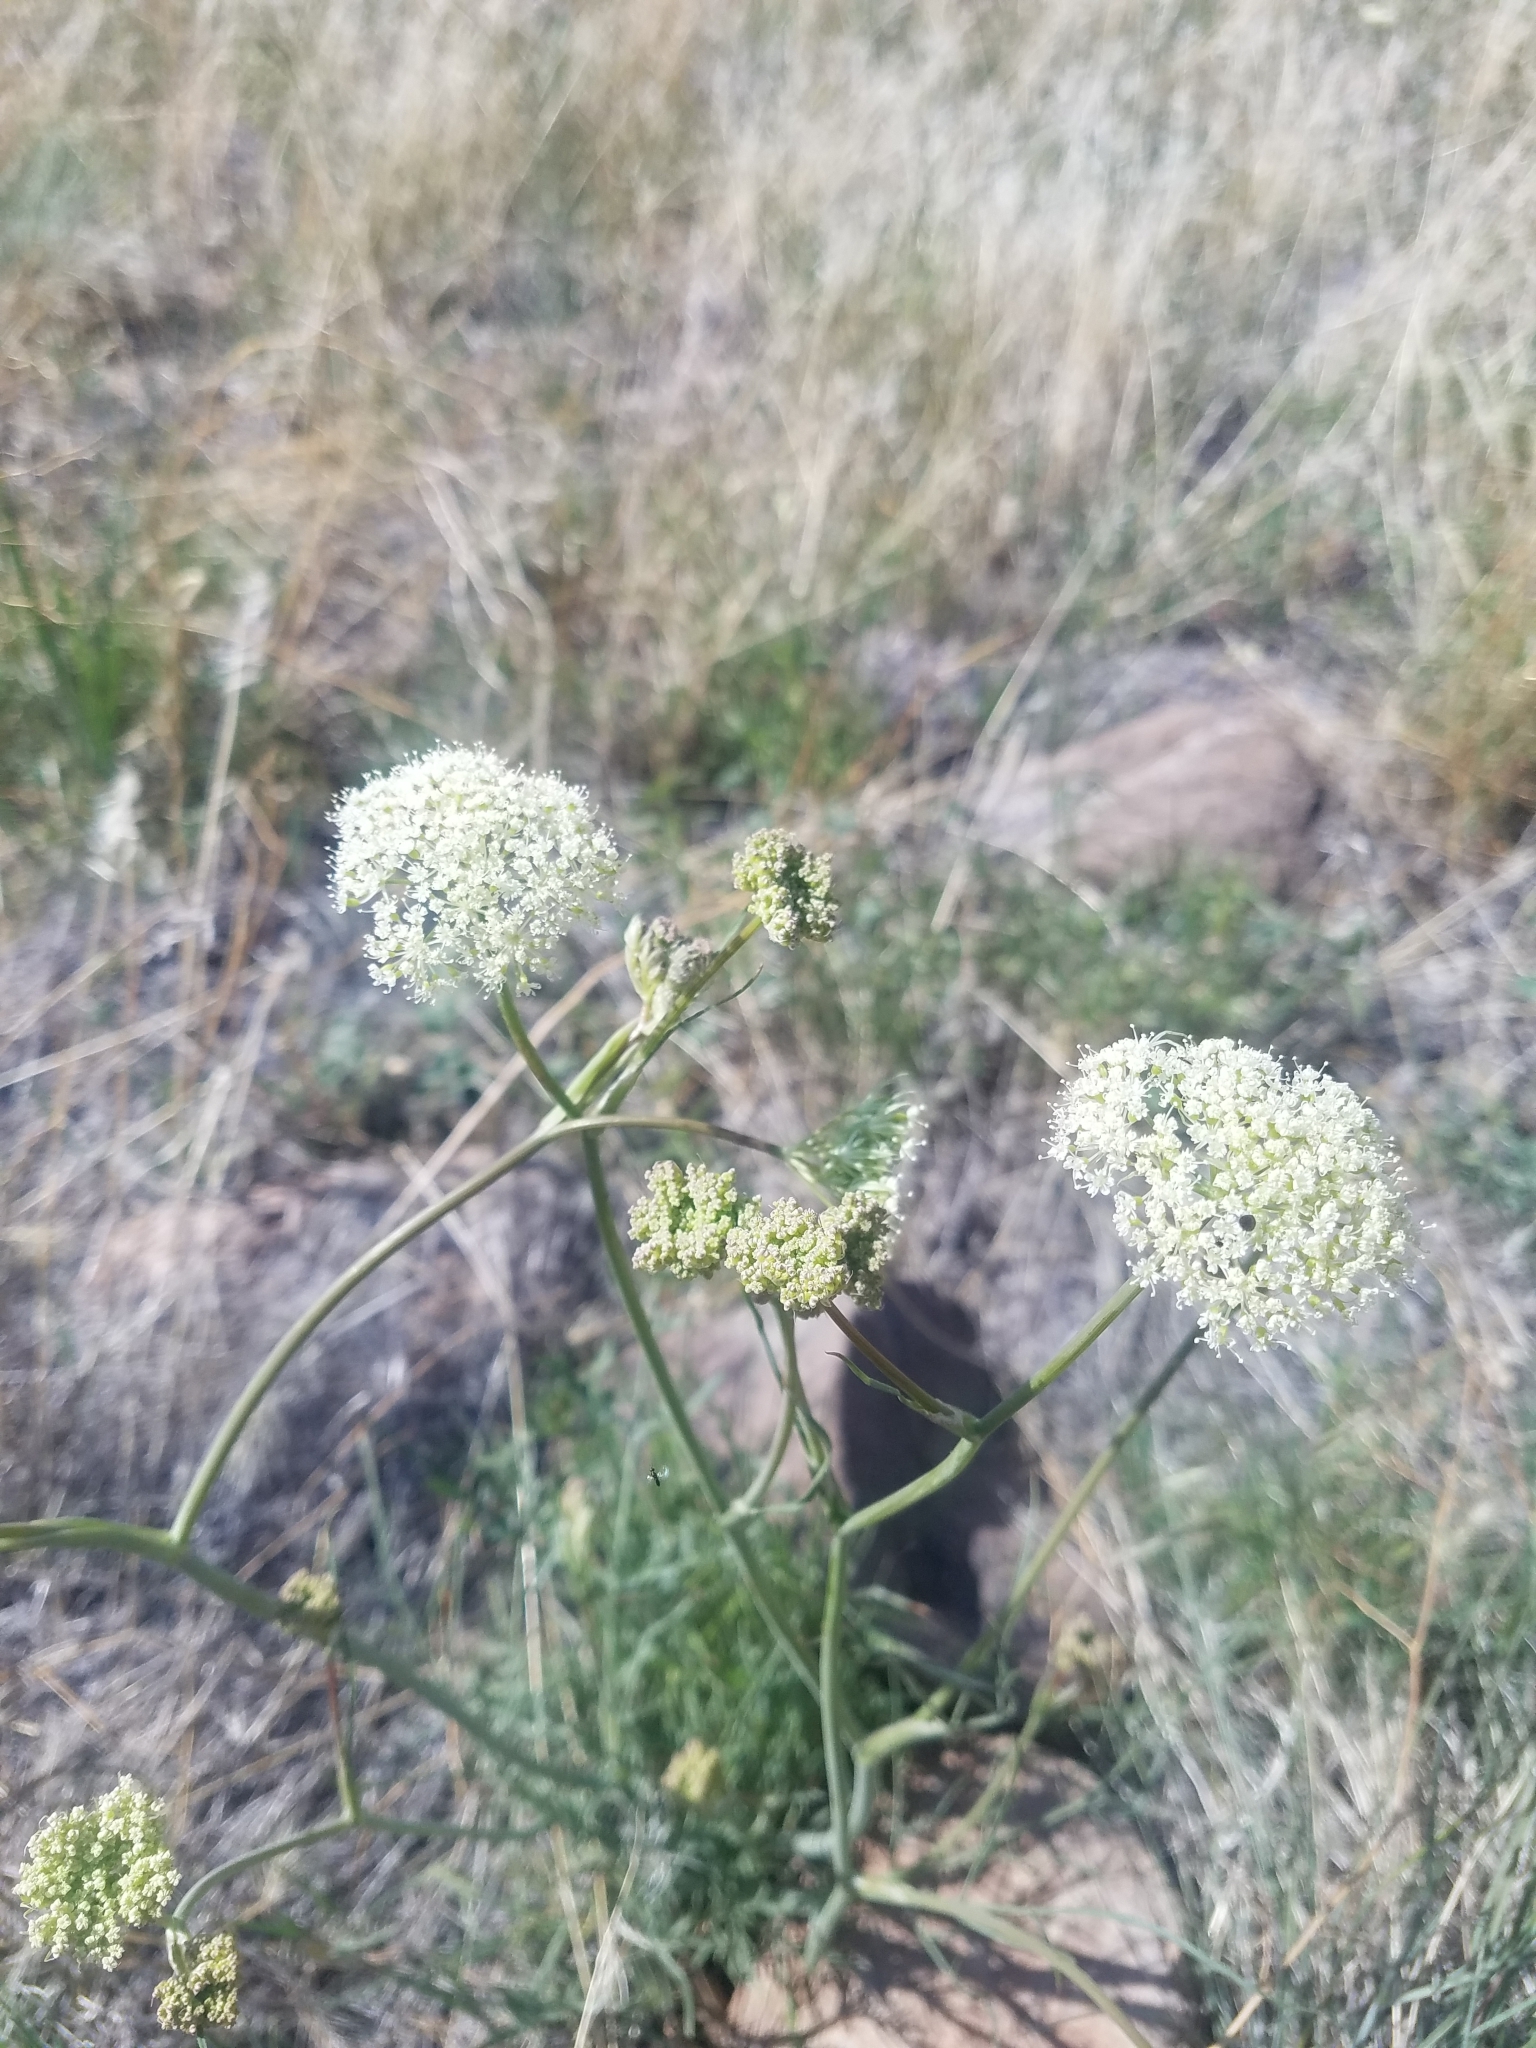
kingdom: Plantae
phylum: Tracheophyta
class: Magnoliopsida
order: Apiales
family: Apiaceae
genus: Perideridia
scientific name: Perideridia bolanderi
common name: Olasi
